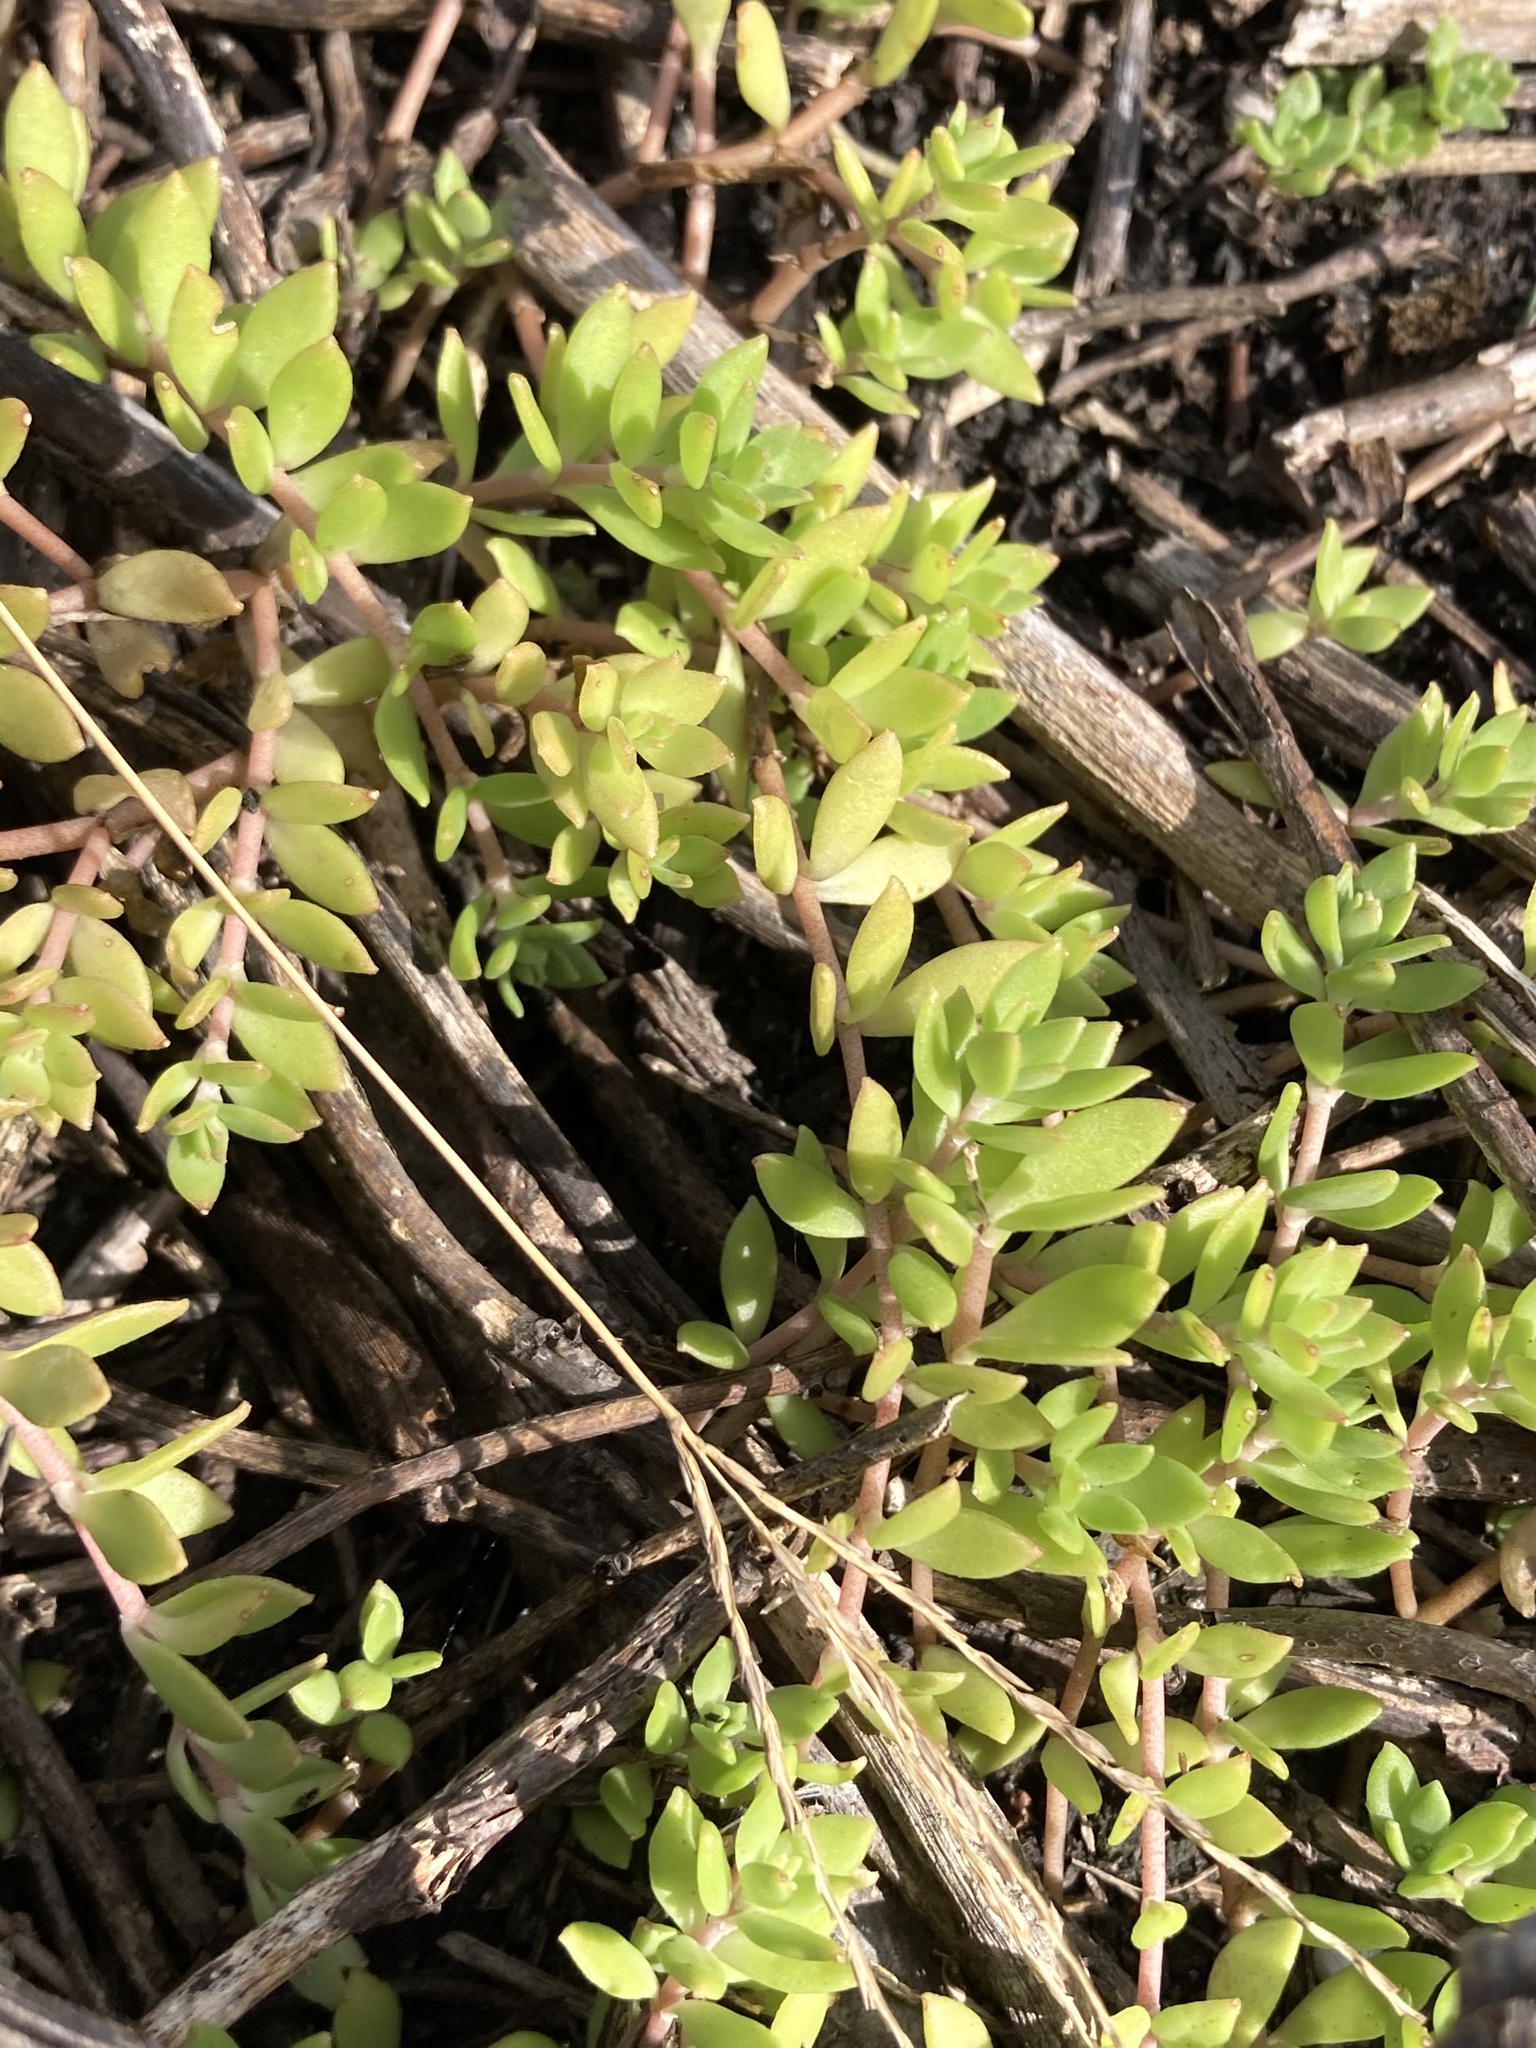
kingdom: Plantae
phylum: Tracheophyta
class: Magnoliopsida
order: Saxifragales
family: Crassulaceae
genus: Sedum
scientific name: Sedum sarmentosum
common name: Stringy stonecrop
